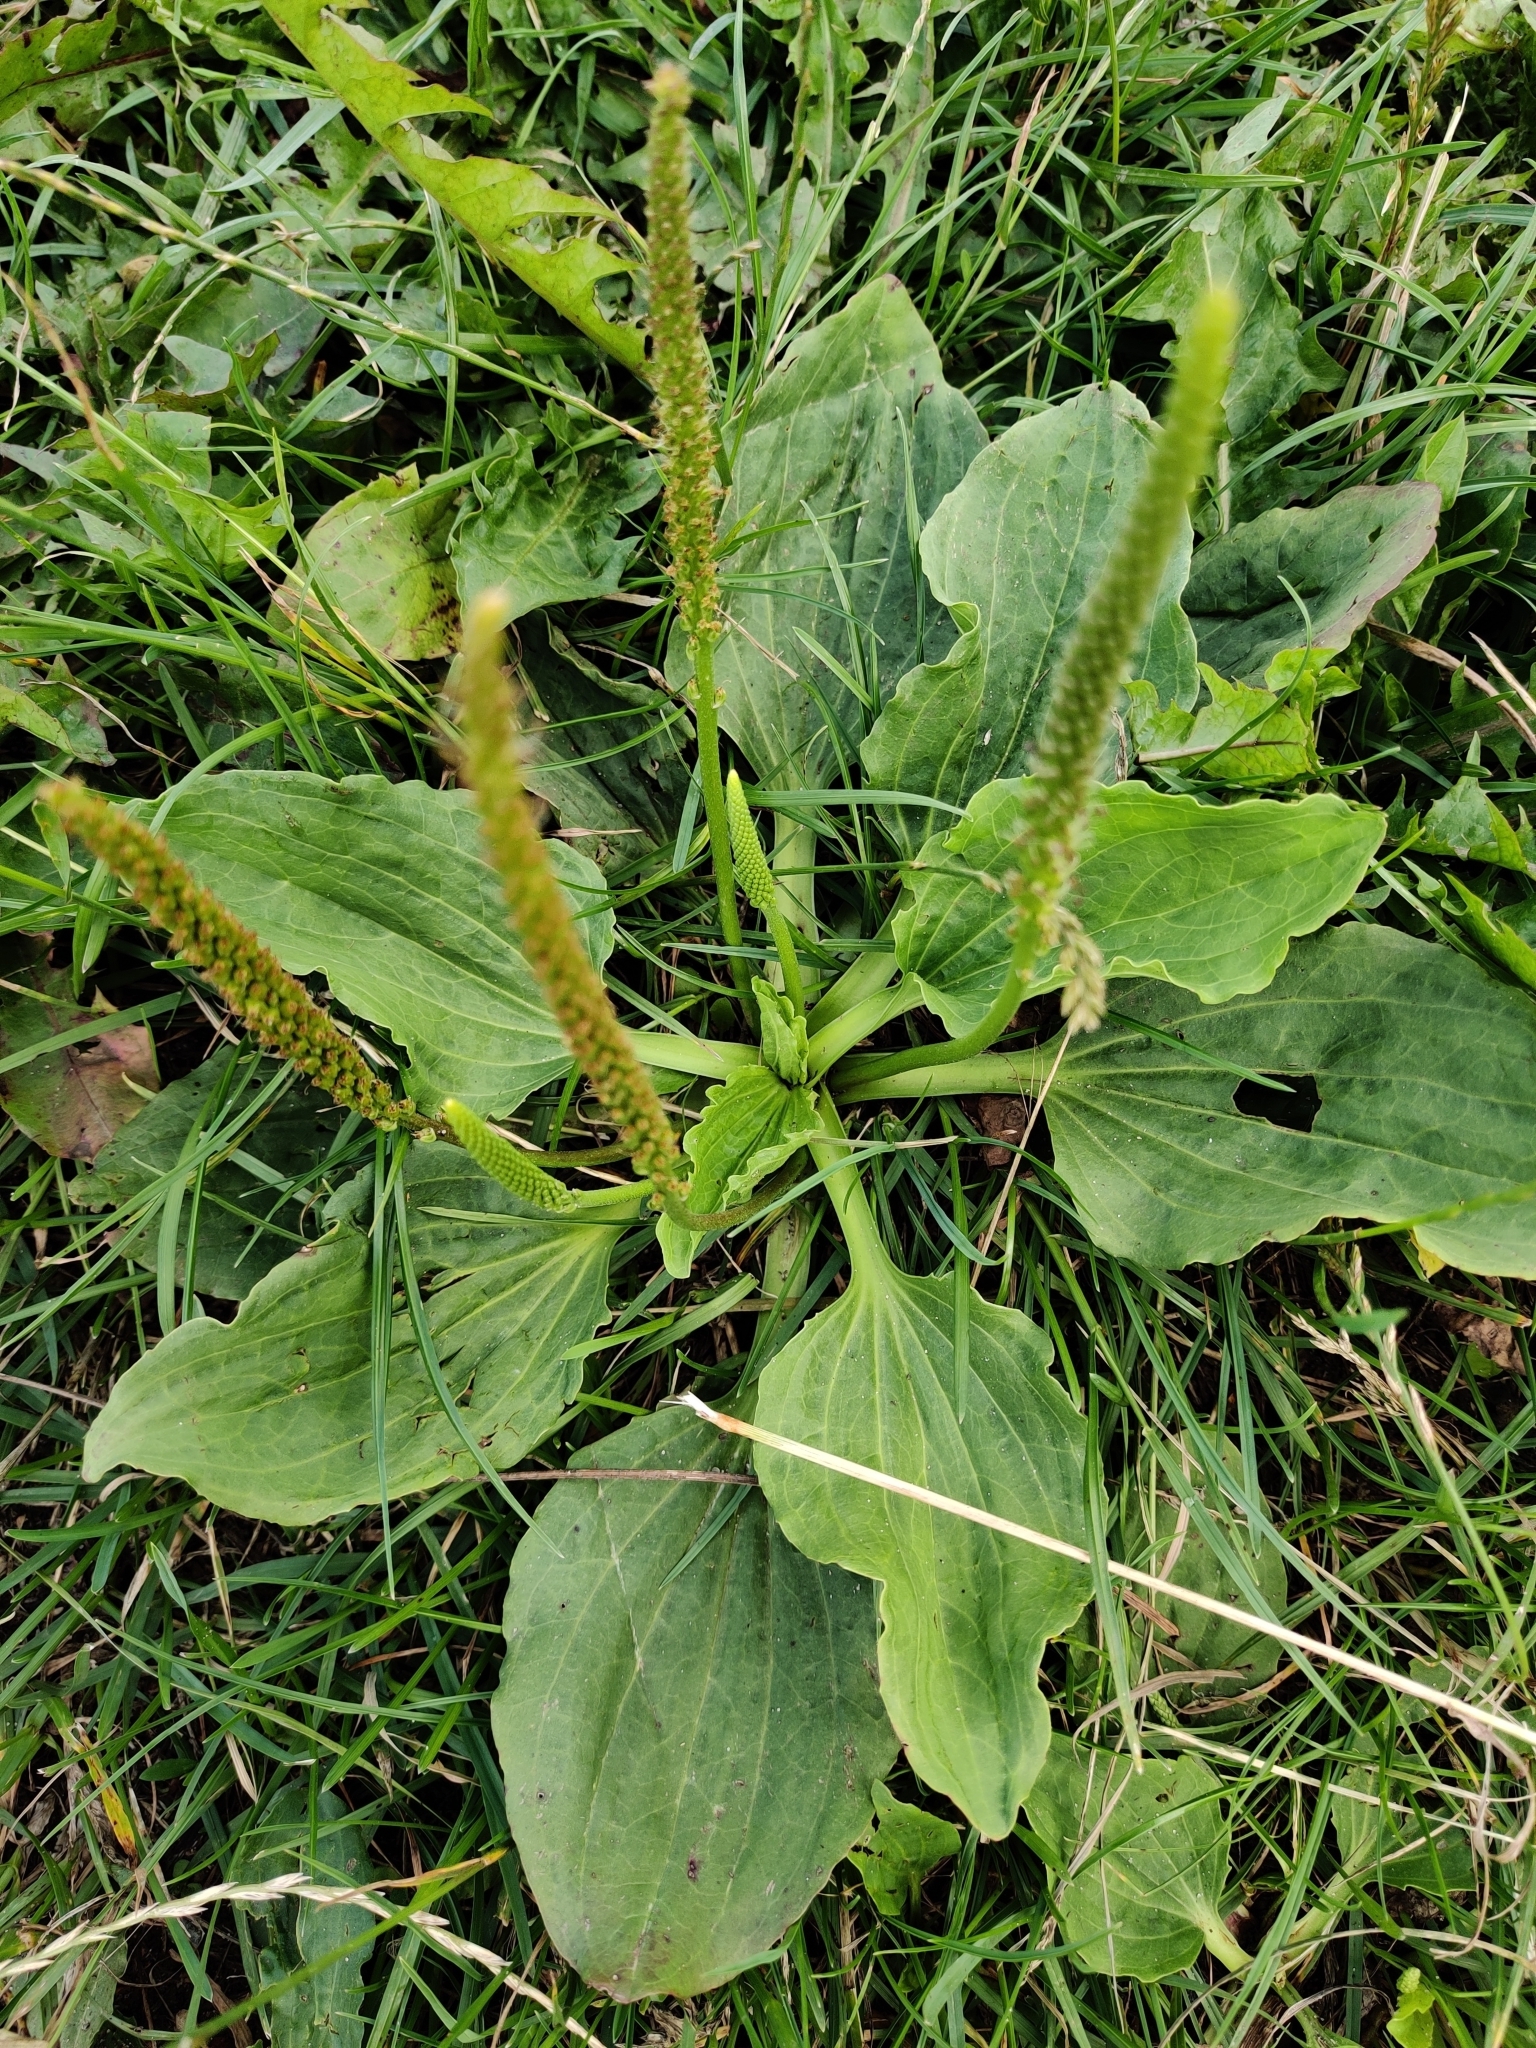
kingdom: Plantae
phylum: Tracheophyta
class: Magnoliopsida
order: Lamiales
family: Plantaginaceae
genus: Plantago
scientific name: Plantago major
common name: Common plantain
